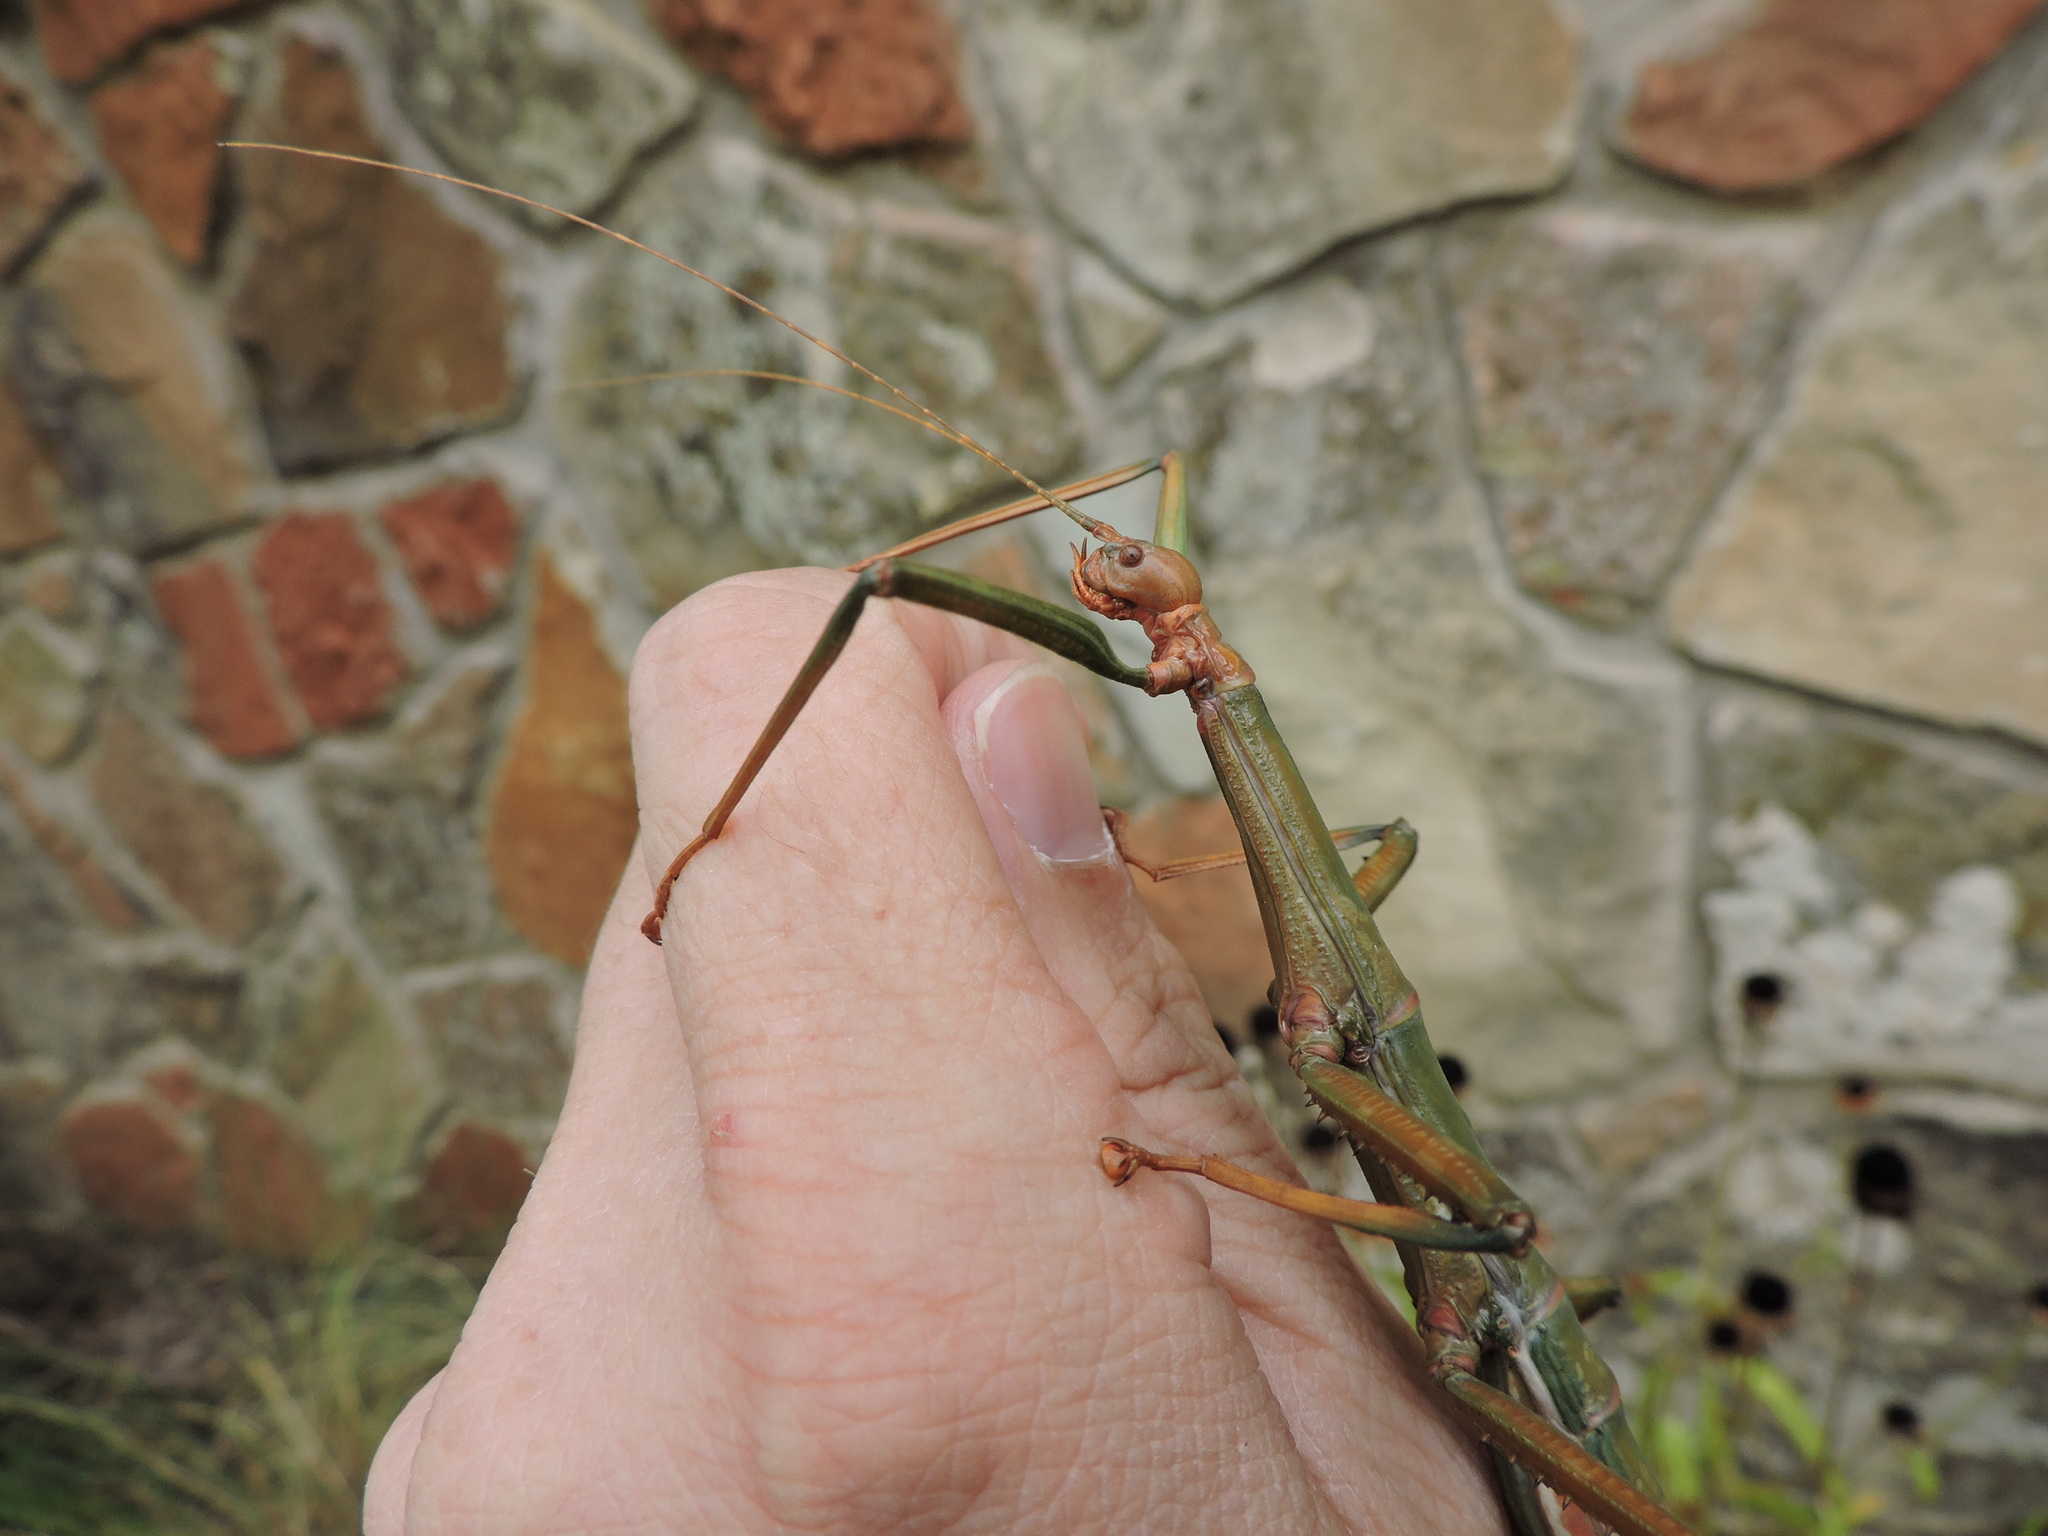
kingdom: Animalia
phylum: Arthropoda
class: Insecta
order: Phasmida
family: Diapheromeridae
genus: Megaphasma
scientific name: Megaphasma denticrus
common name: Giant walkingstick
